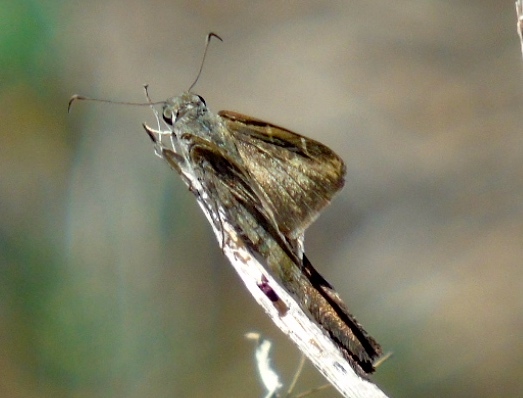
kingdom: Animalia
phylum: Arthropoda
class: Insecta
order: Lepidoptera
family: Hesperiidae
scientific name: Hesperiidae
